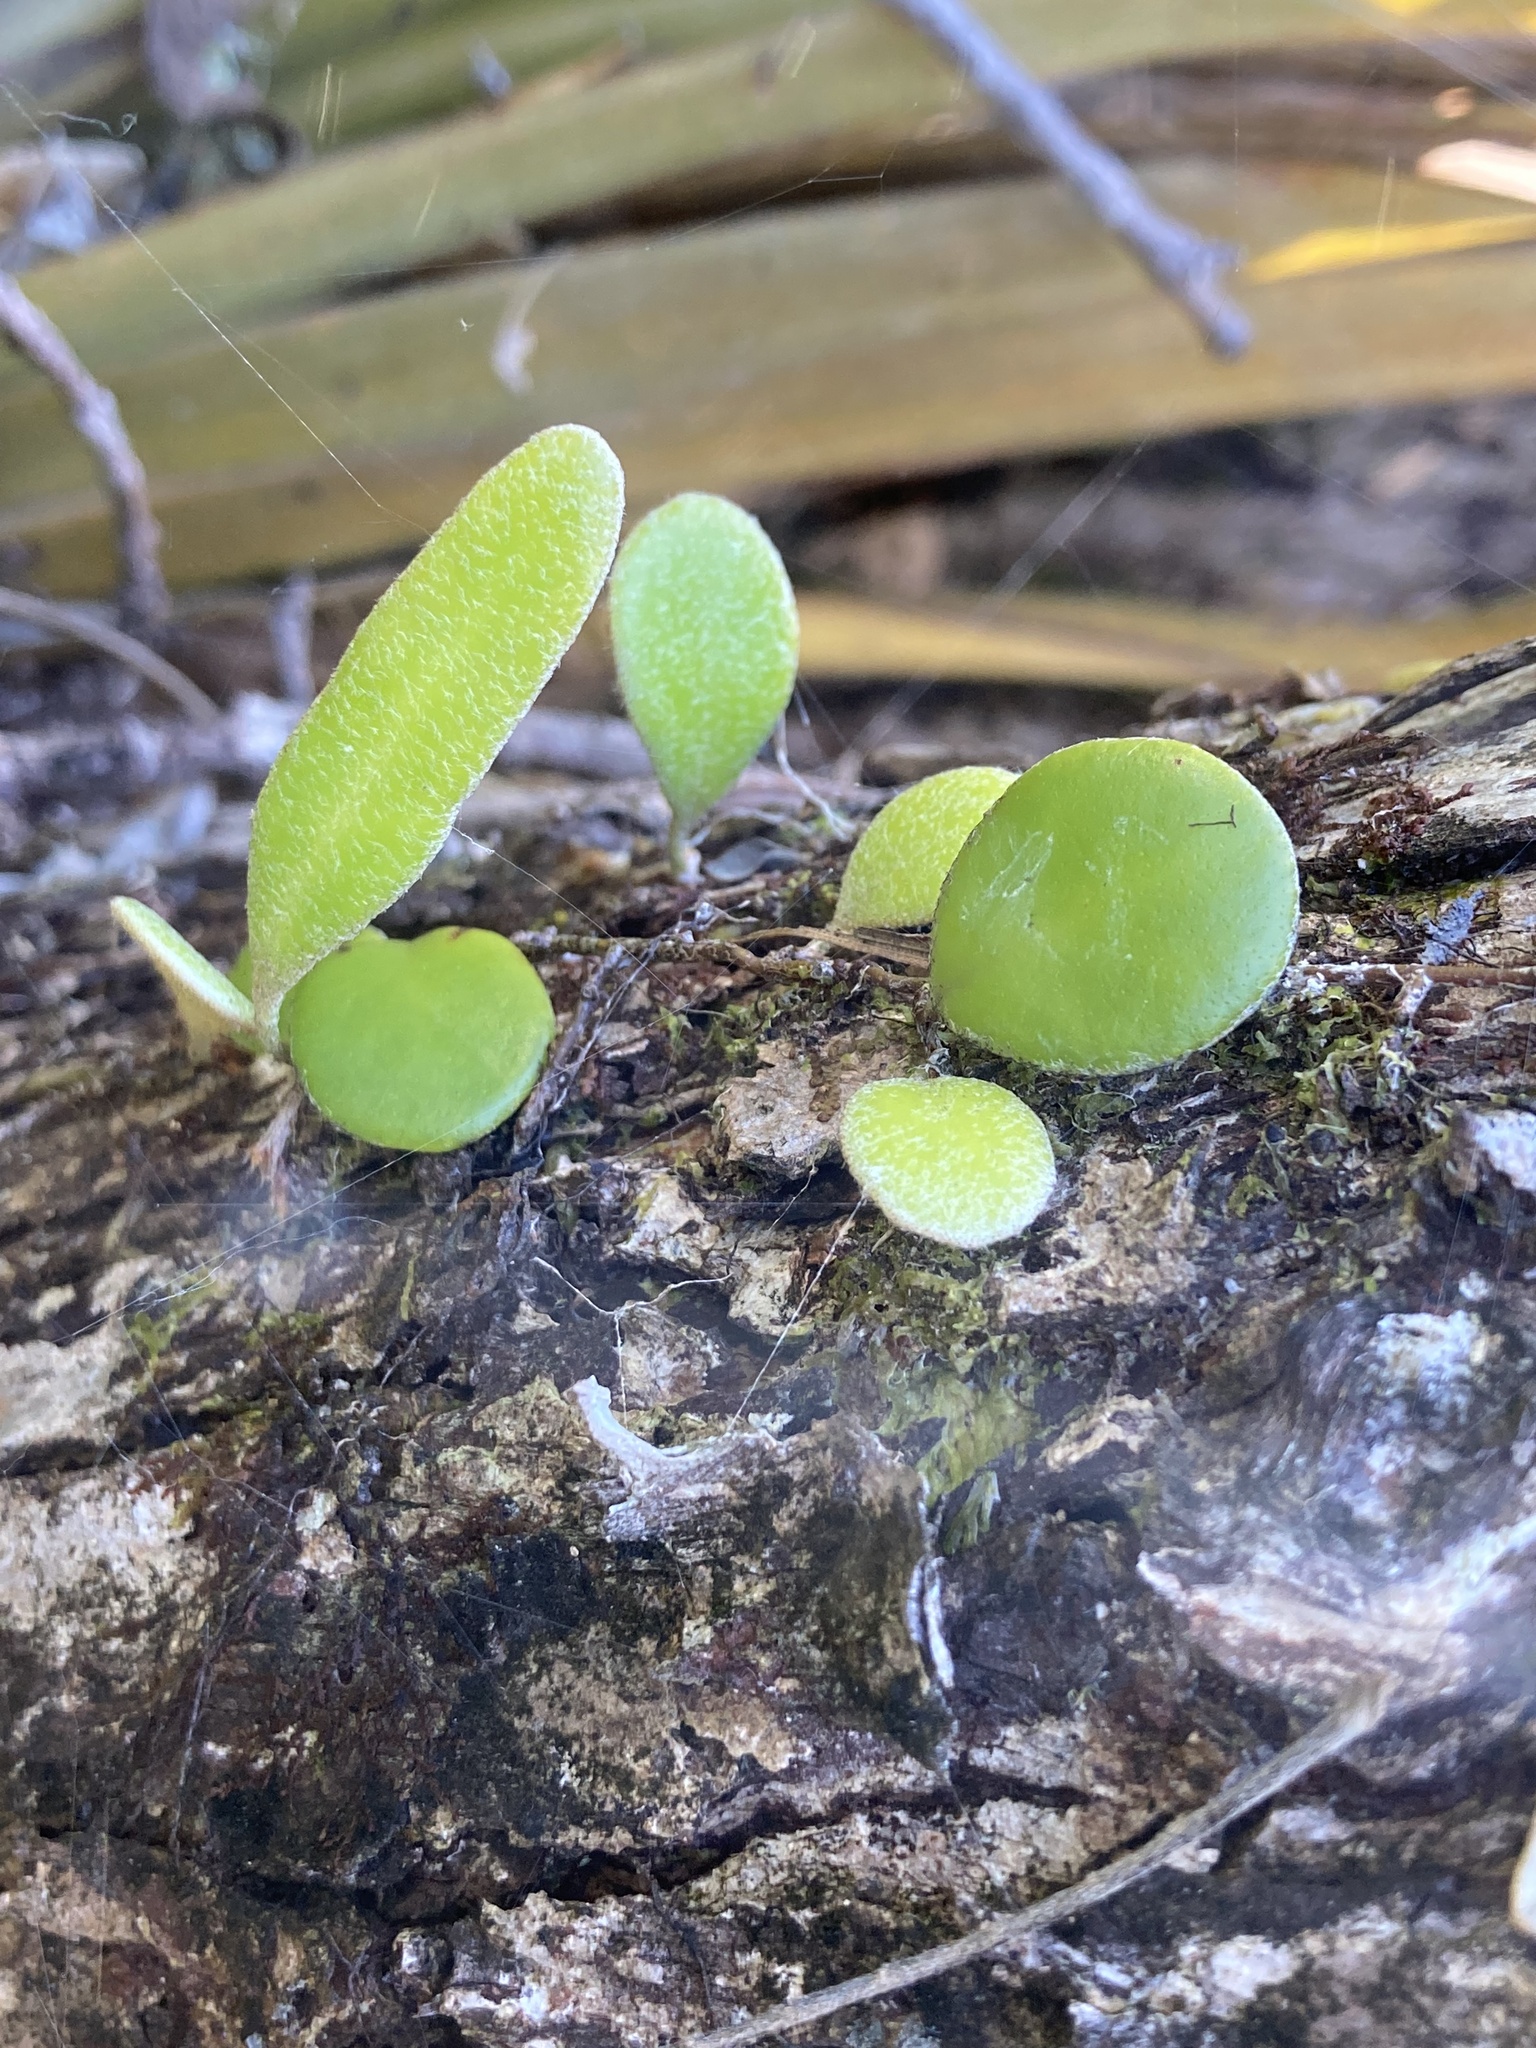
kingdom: Plantae
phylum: Tracheophyta
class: Polypodiopsida
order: Polypodiales
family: Polypodiaceae
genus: Pyrrosia
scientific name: Pyrrosia eleagnifolia
